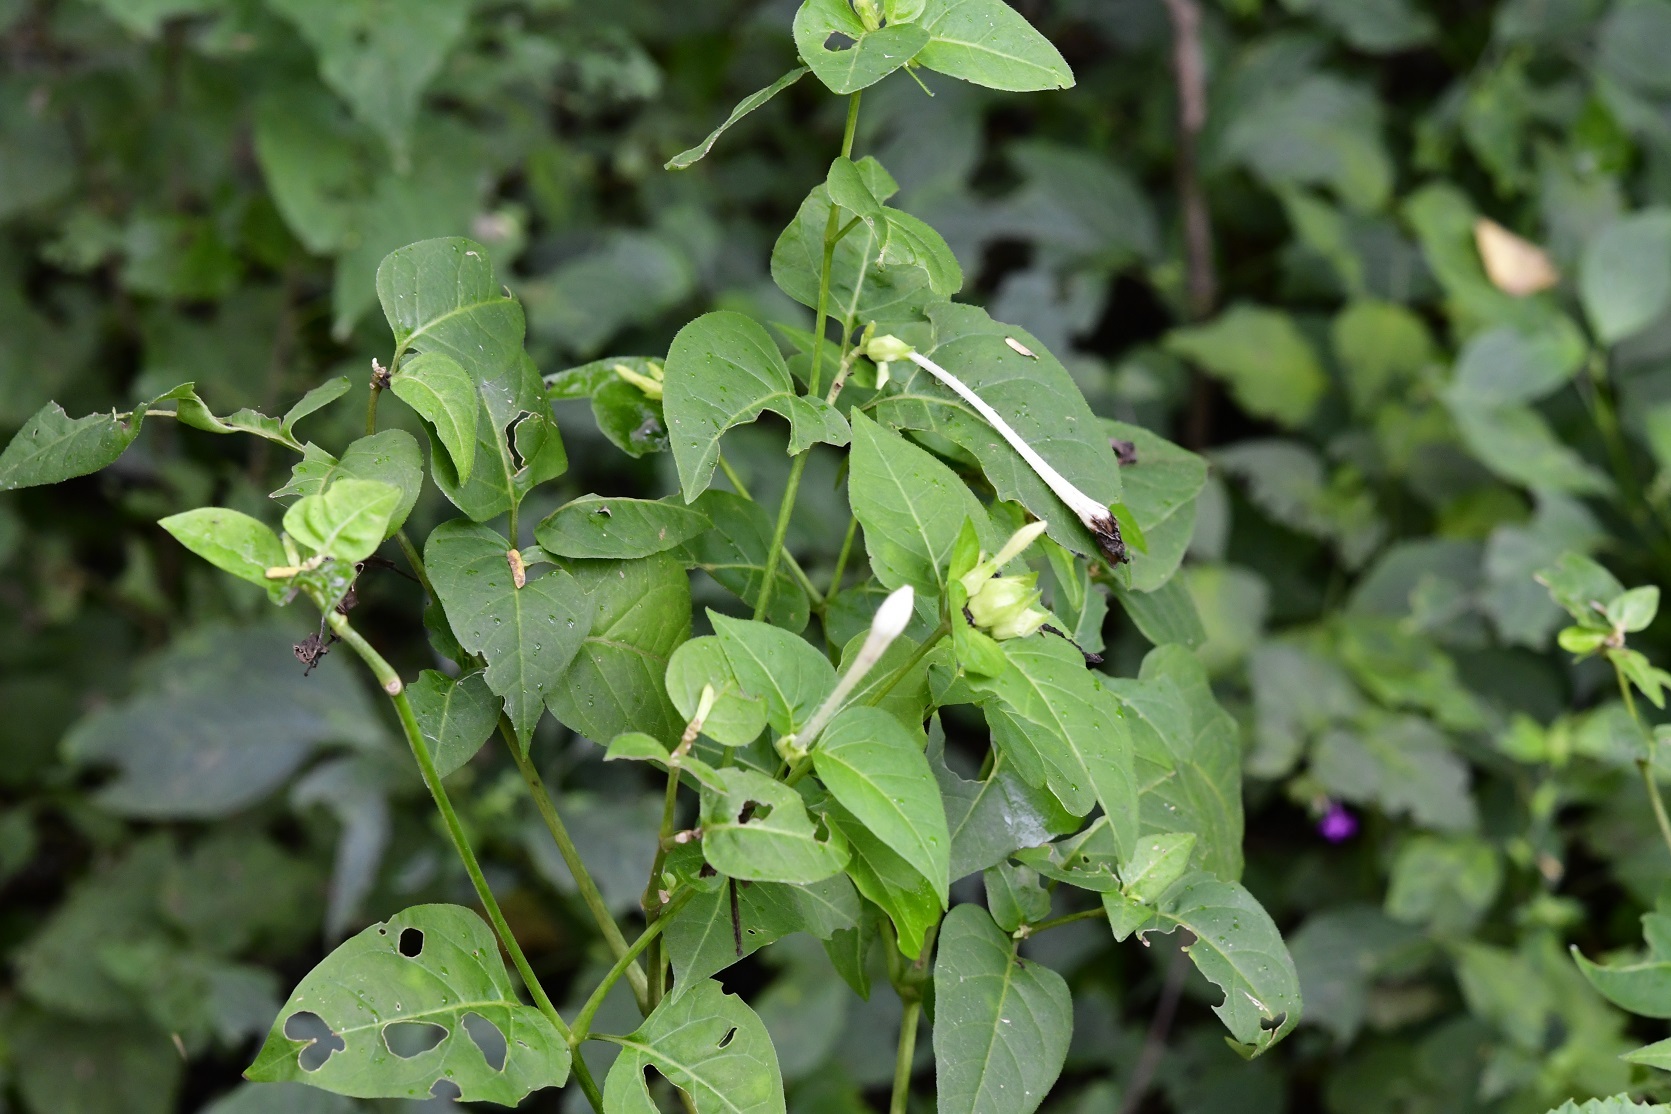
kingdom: Plantae
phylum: Tracheophyta
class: Magnoliopsida
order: Caryophyllales
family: Nyctaginaceae
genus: Mirabilis
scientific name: Mirabilis jalapa
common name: Marvel-of-peru
